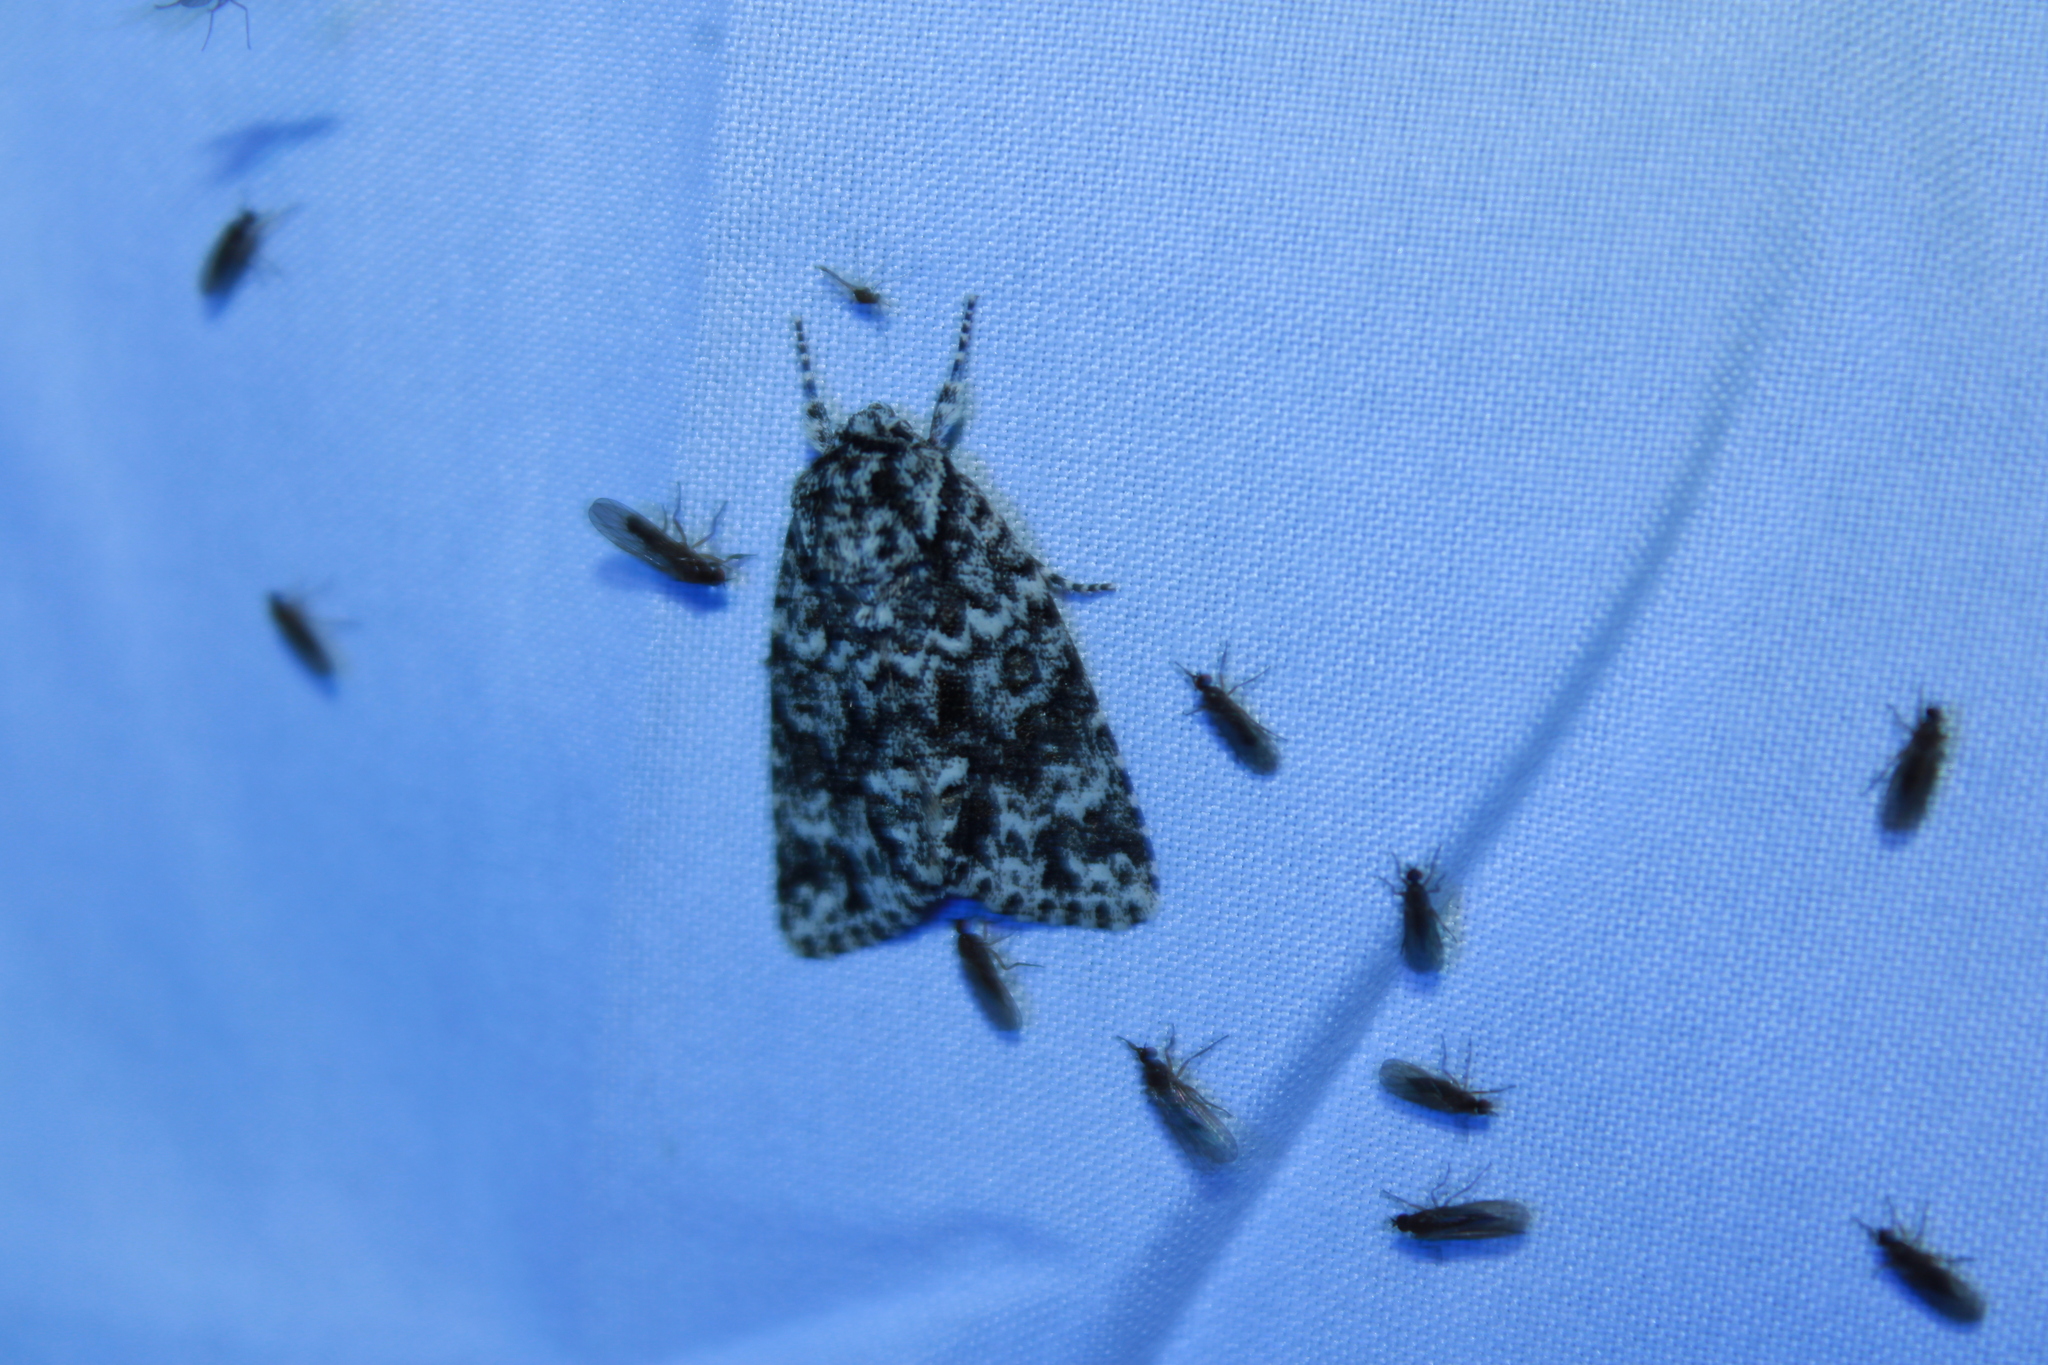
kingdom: Animalia
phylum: Arthropoda
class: Insecta
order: Lepidoptera
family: Noctuidae
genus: Acronicta
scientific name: Acronicta noctivaga
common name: Night-wandering dagger
